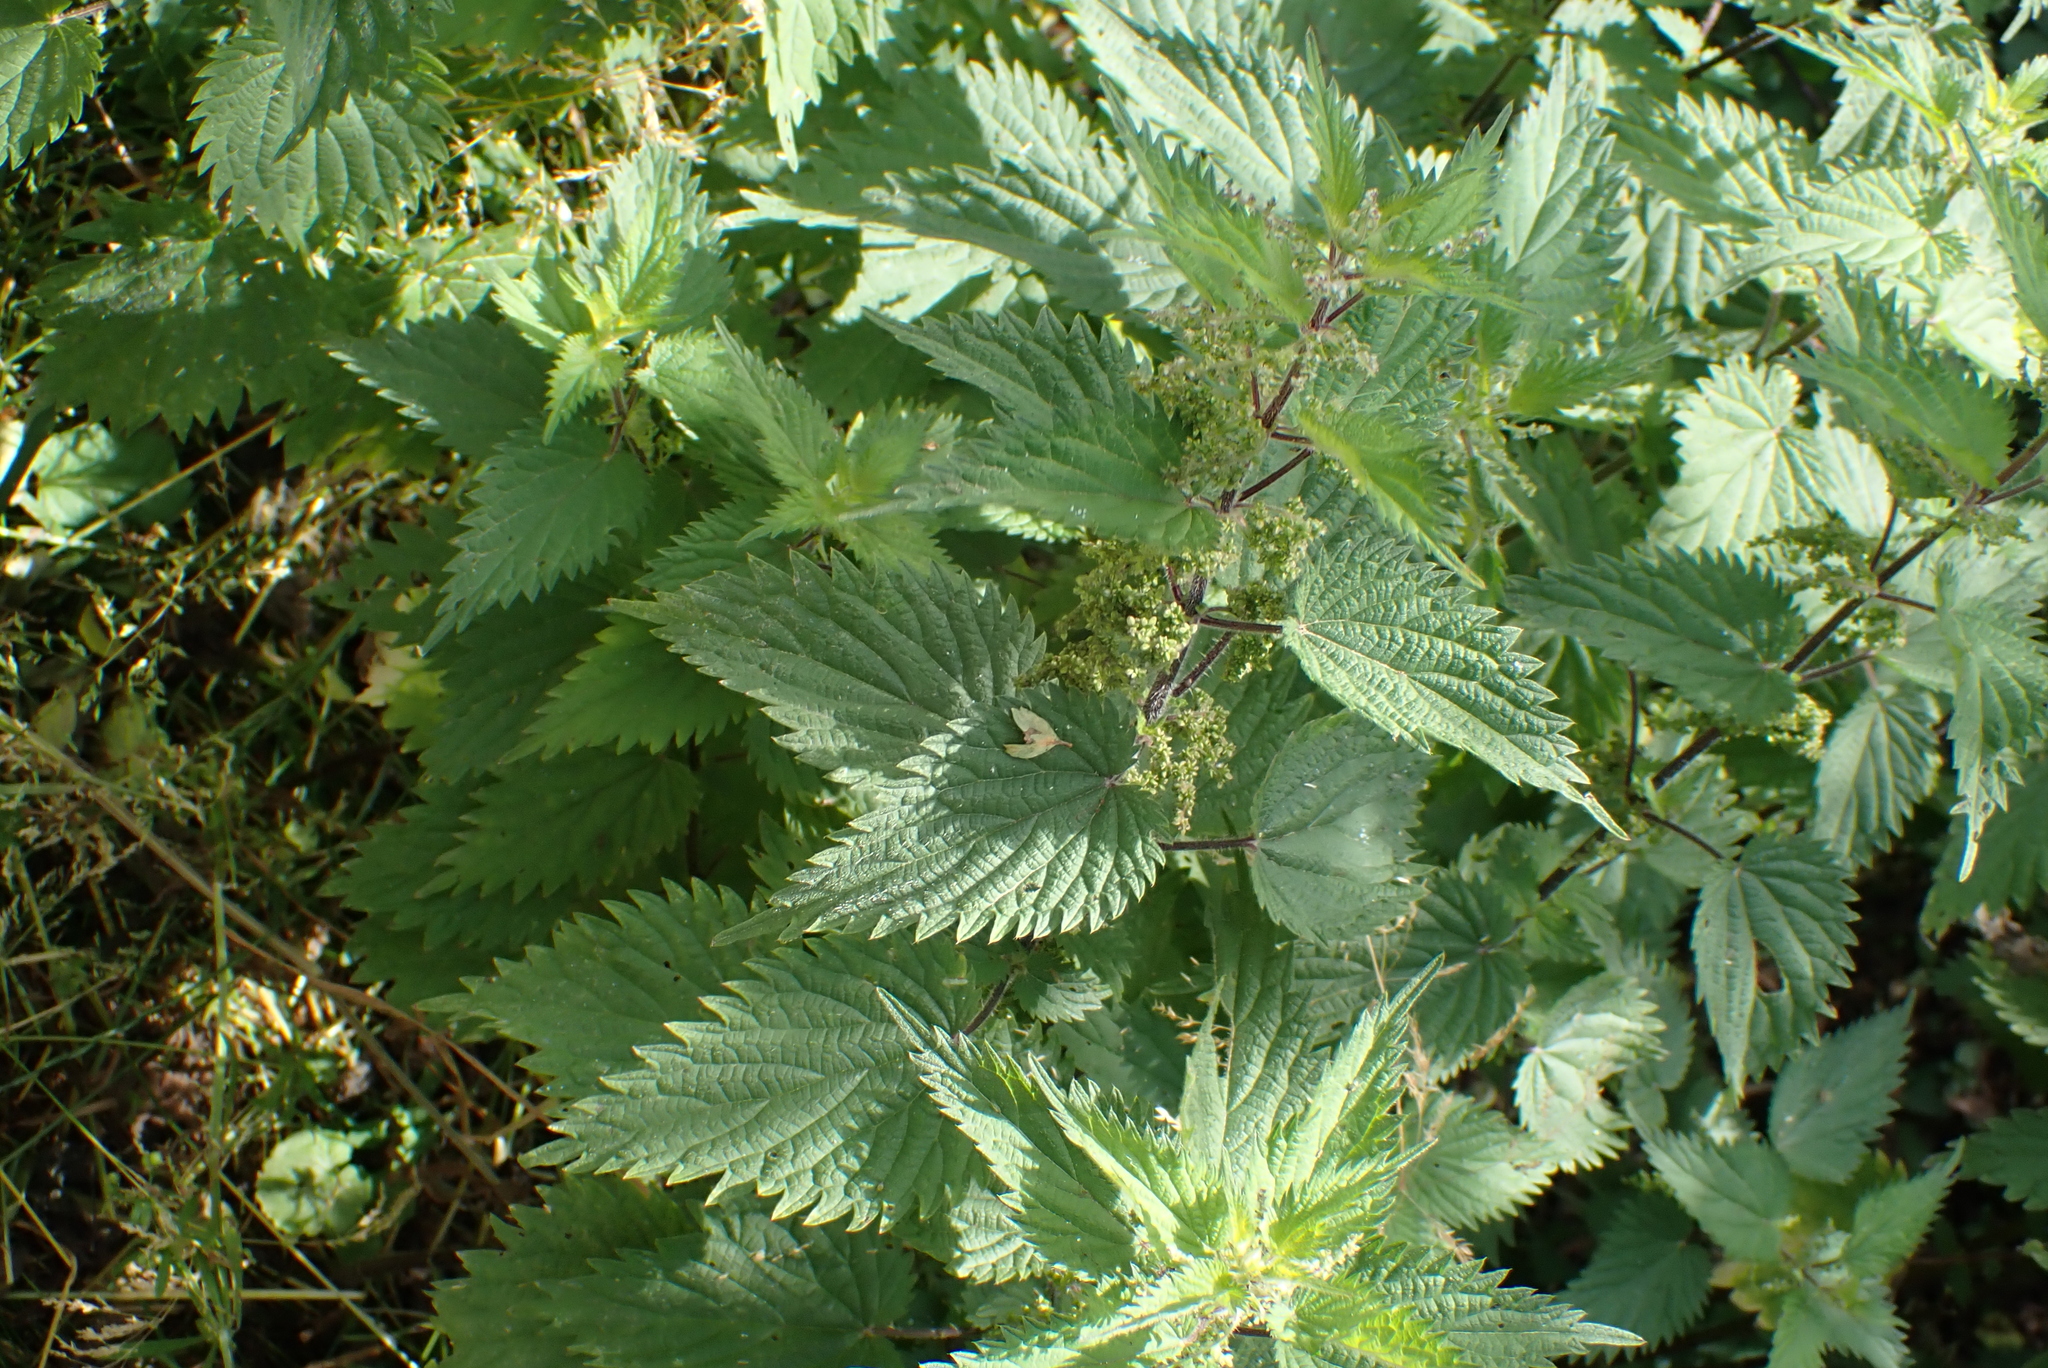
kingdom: Plantae
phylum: Tracheophyta
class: Magnoliopsida
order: Rosales
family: Urticaceae
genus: Urtica
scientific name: Urtica dioica
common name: Common nettle
